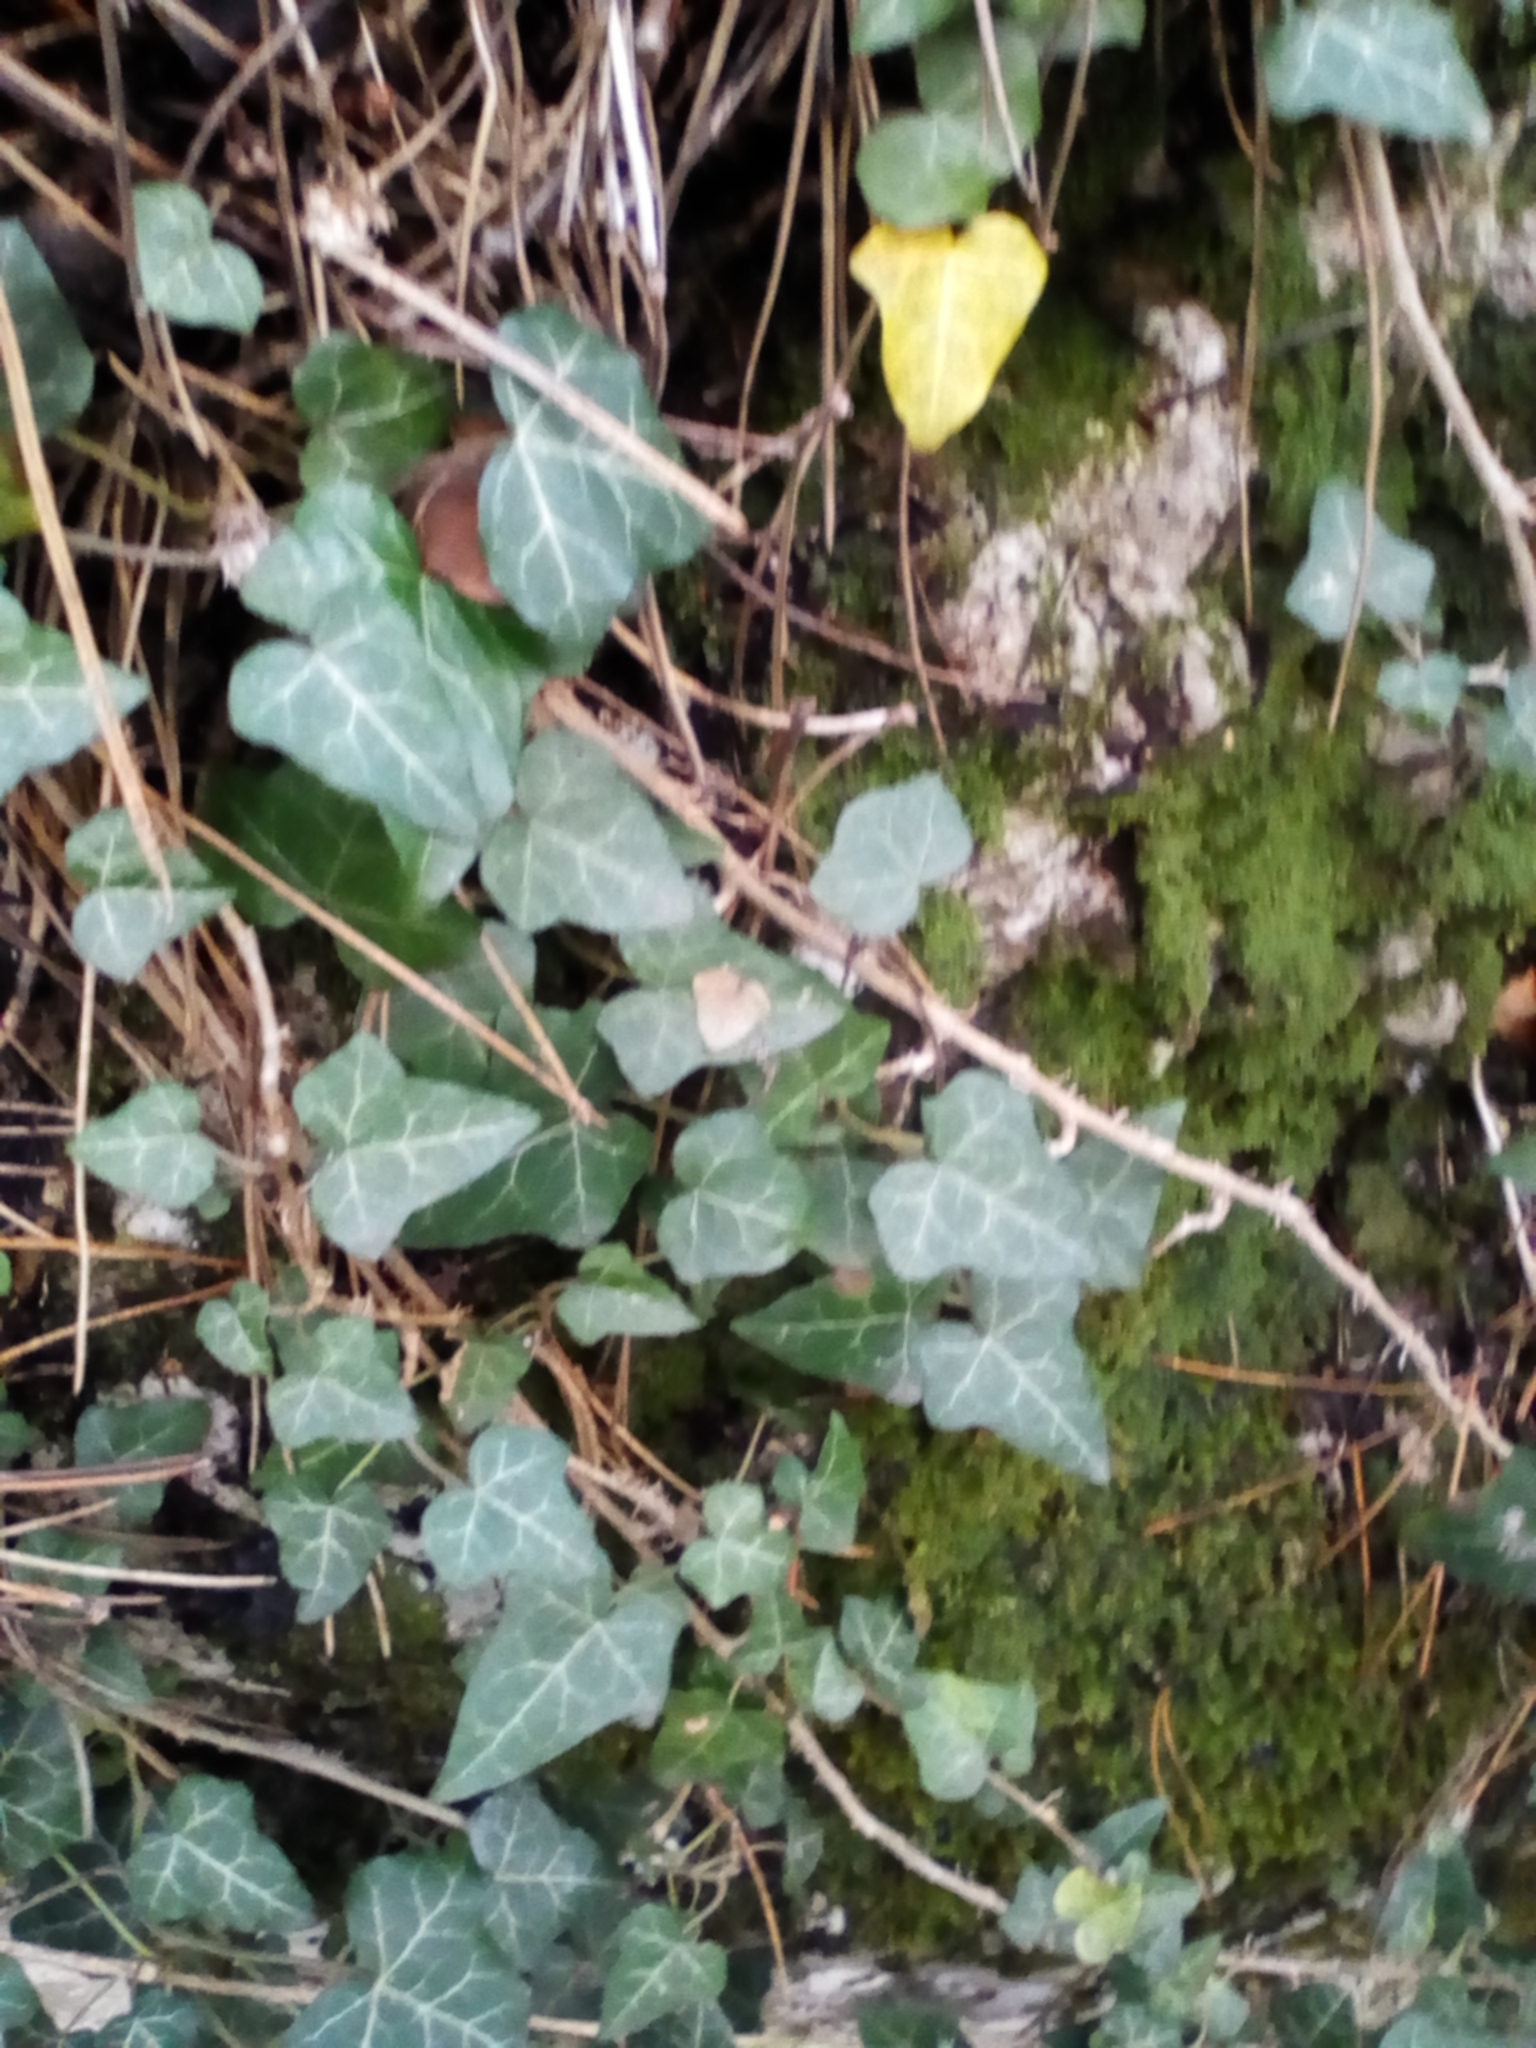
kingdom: Plantae
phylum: Tracheophyta
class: Magnoliopsida
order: Apiales
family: Araliaceae
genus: Hedera
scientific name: Hedera helix
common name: Ivy
